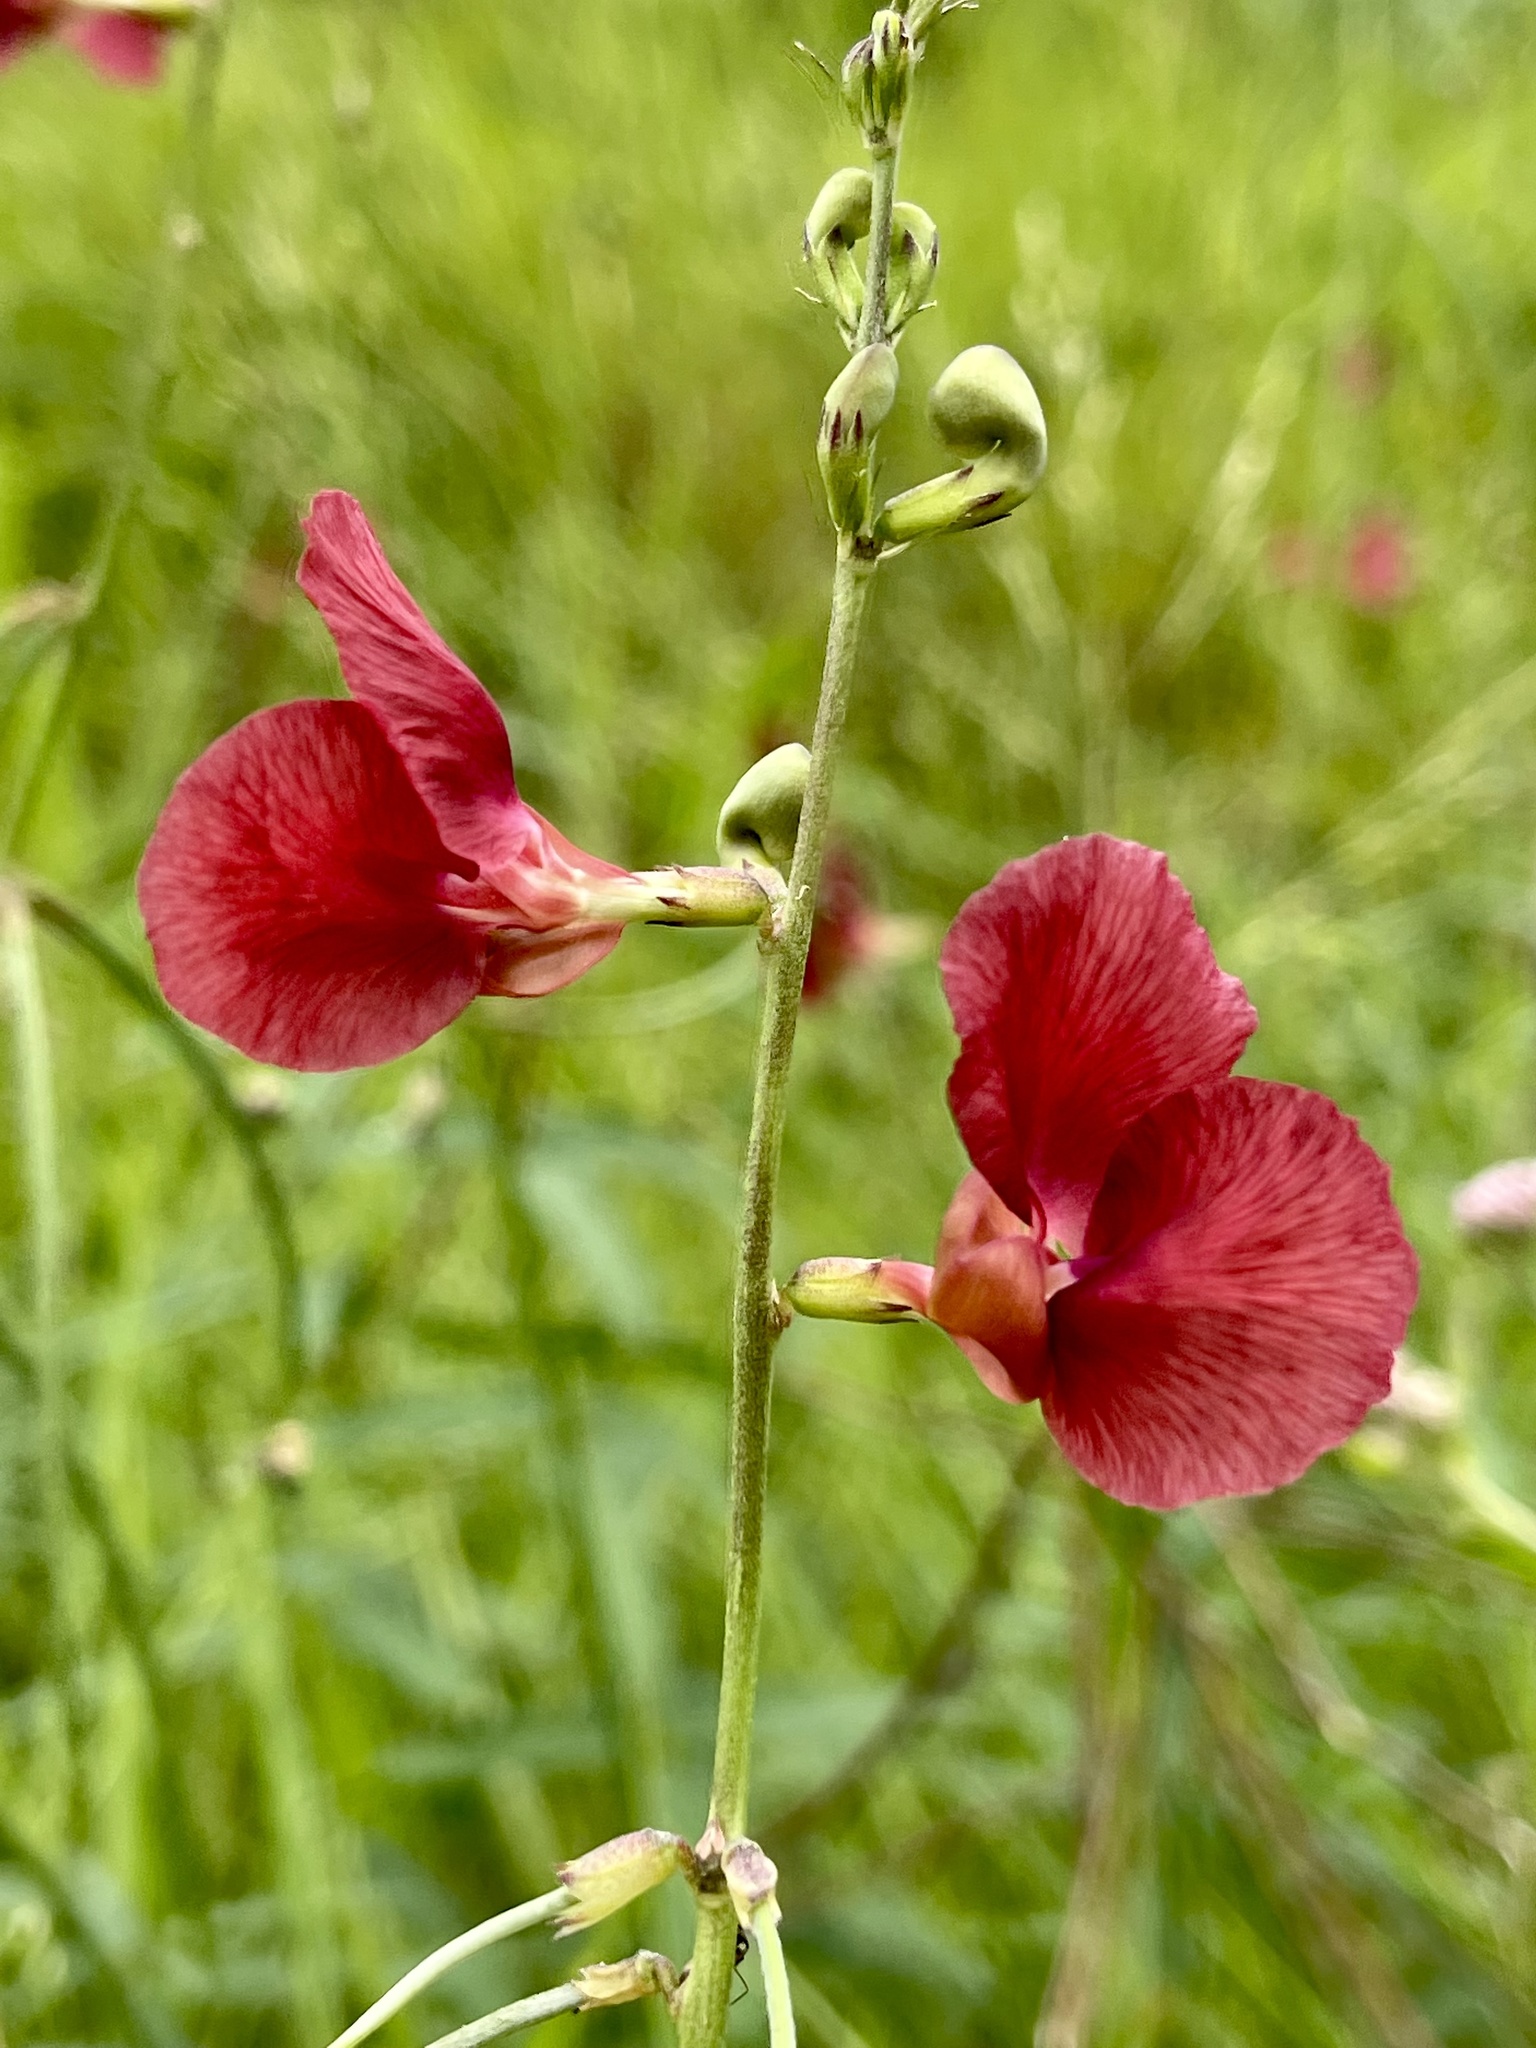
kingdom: Plantae
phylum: Tracheophyta
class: Magnoliopsida
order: Fabales
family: Fabaceae
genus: Macroptilium
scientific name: Macroptilium lathyroides
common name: Wild bushbean
